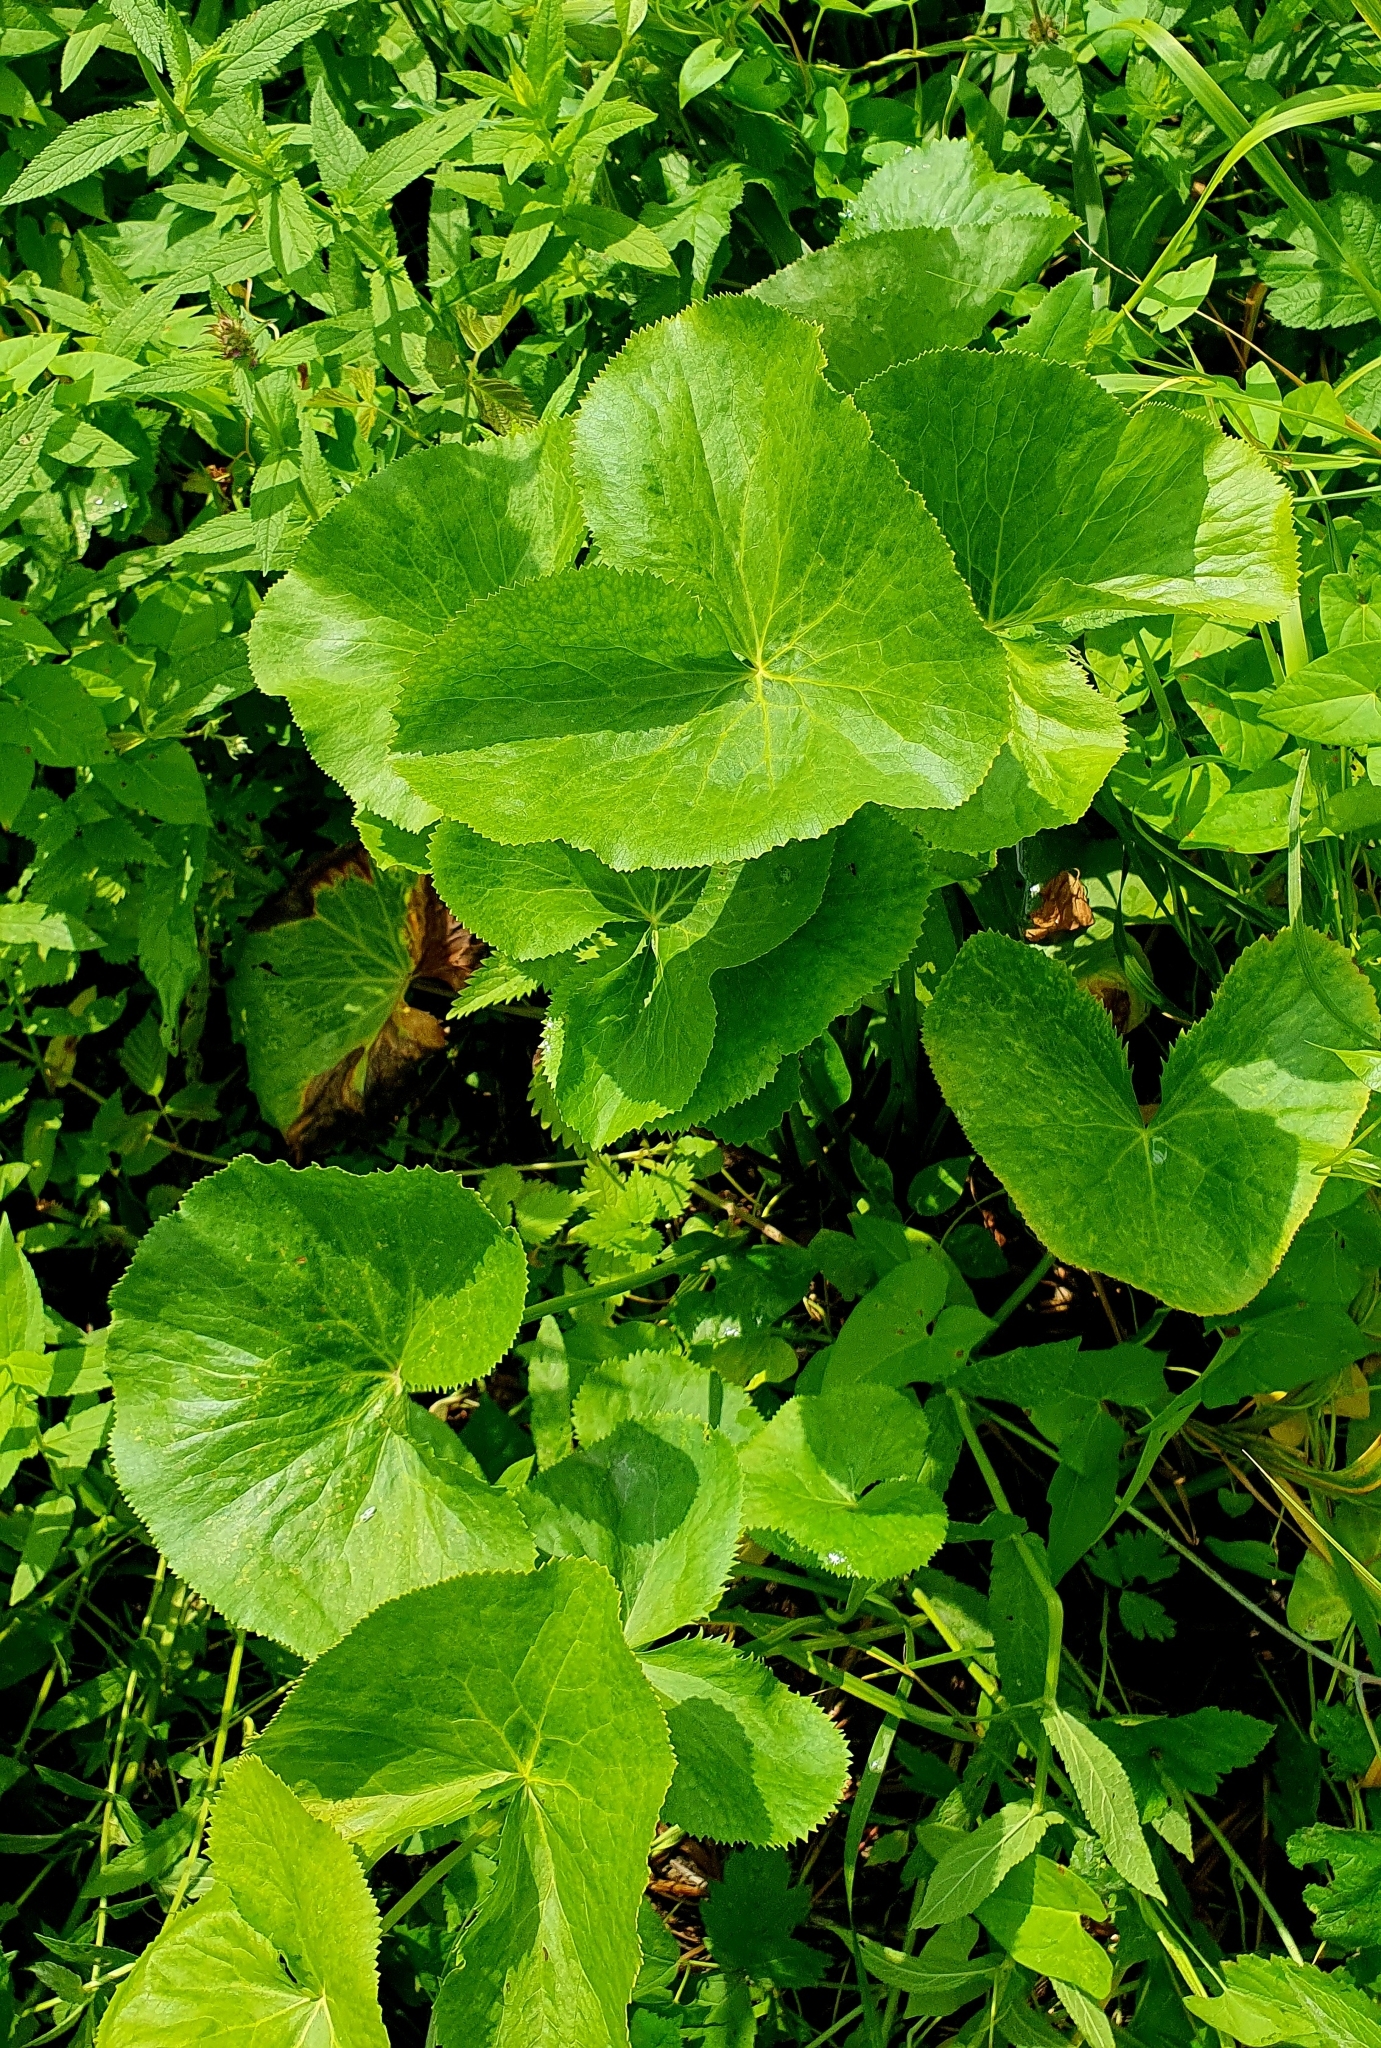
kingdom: Plantae
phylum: Tracheophyta
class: Magnoliopsida
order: Ranunculales
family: Ranunculaceae
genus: Caltha
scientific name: Caltha palustris
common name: Marsh marigold
